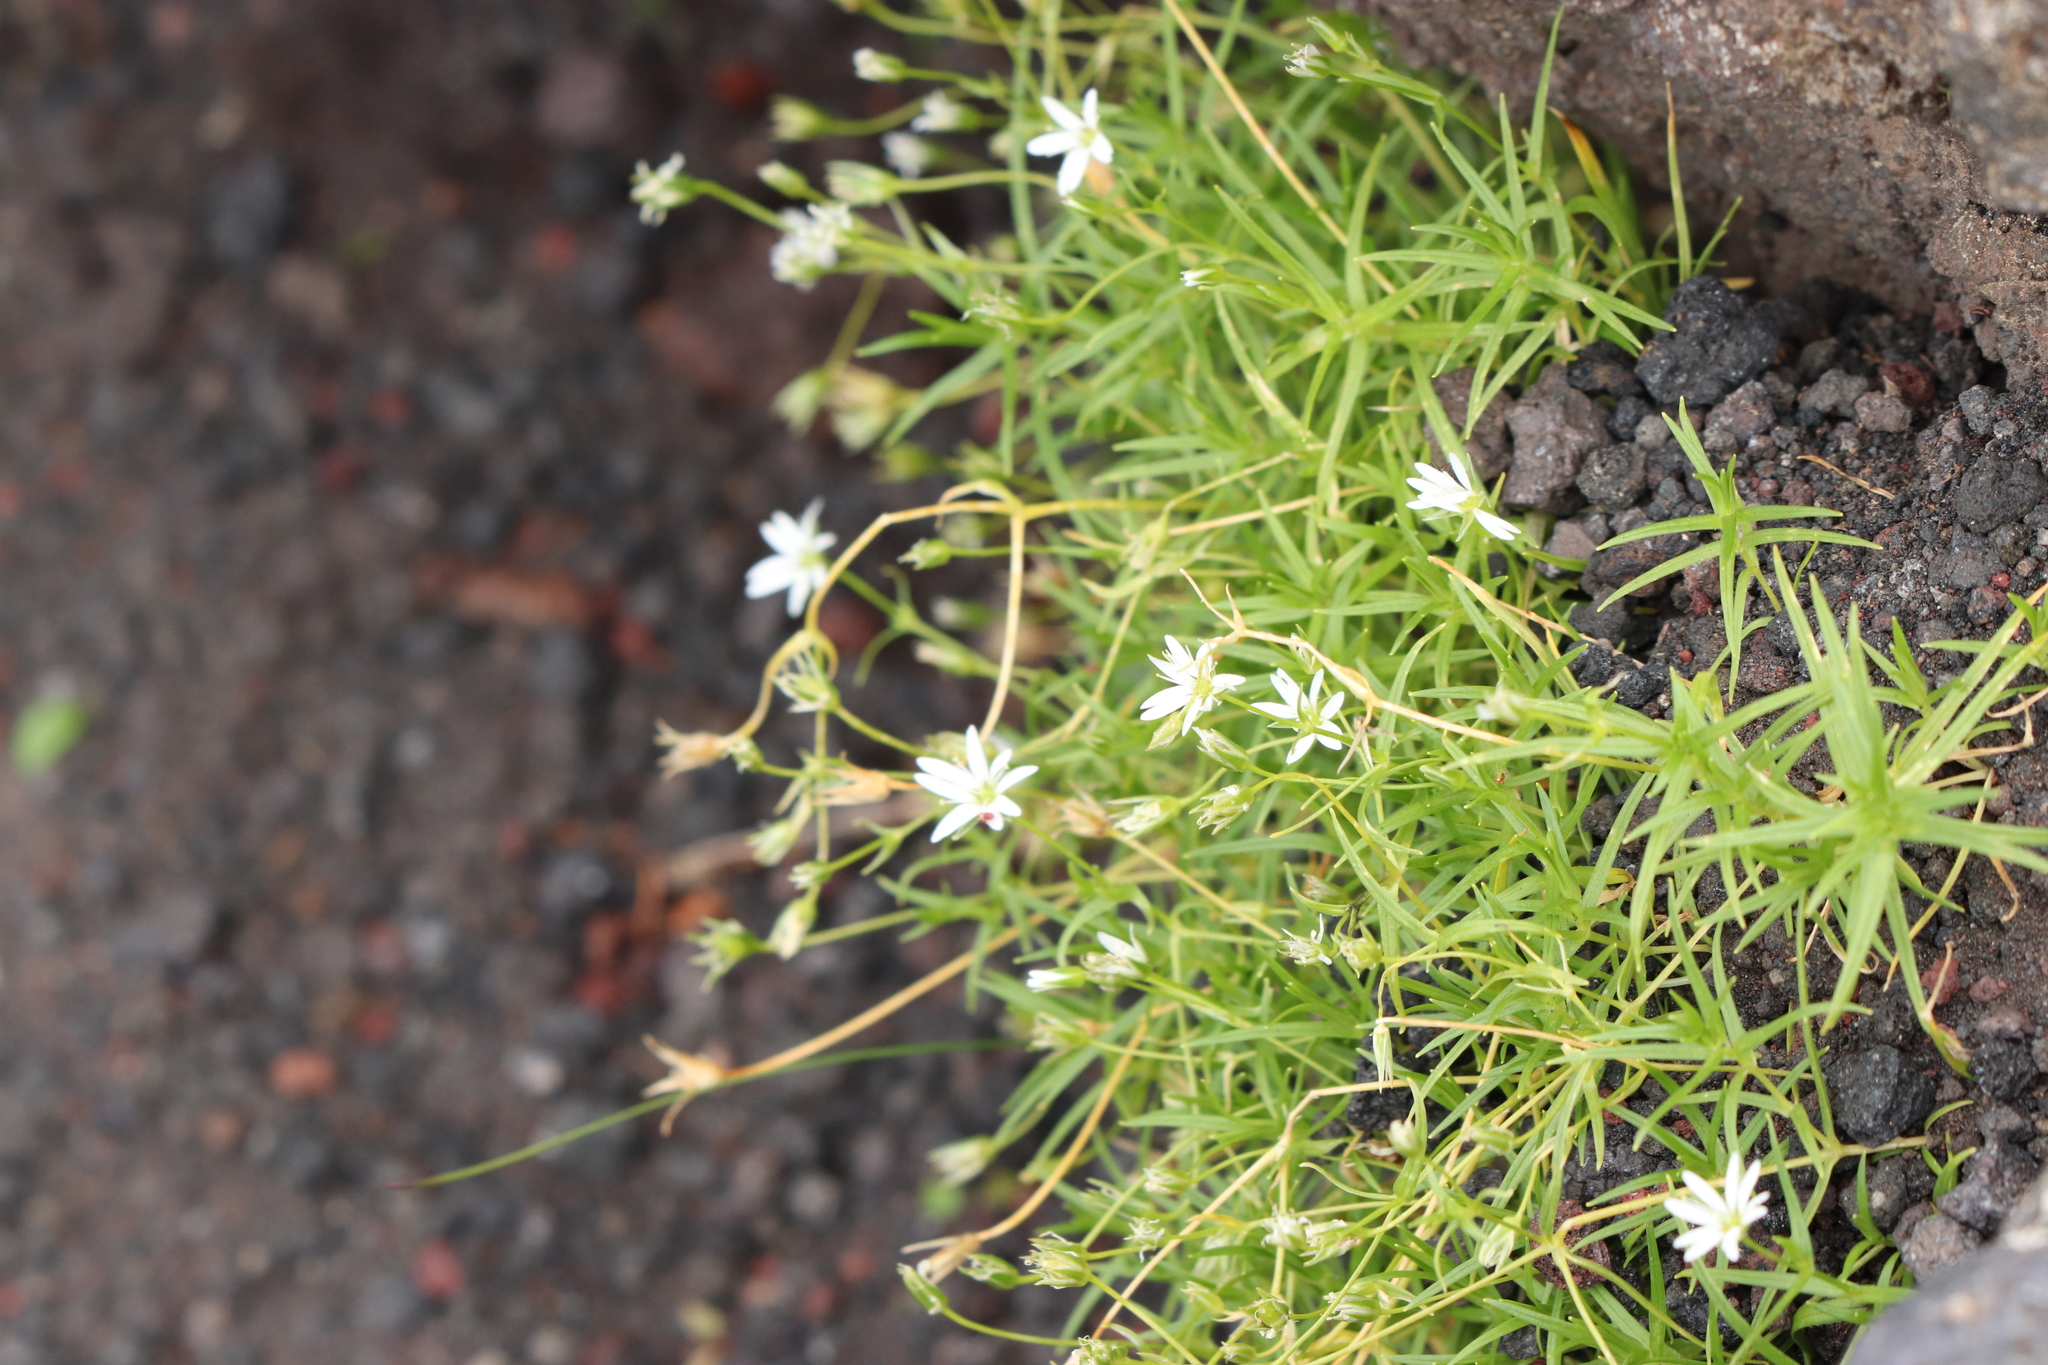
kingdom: Plantae
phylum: Tracheophyta
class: Magnoliopsida
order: Caryophyllales
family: Caryophyllaceae
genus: Stellaria
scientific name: Stellaria nipponica
